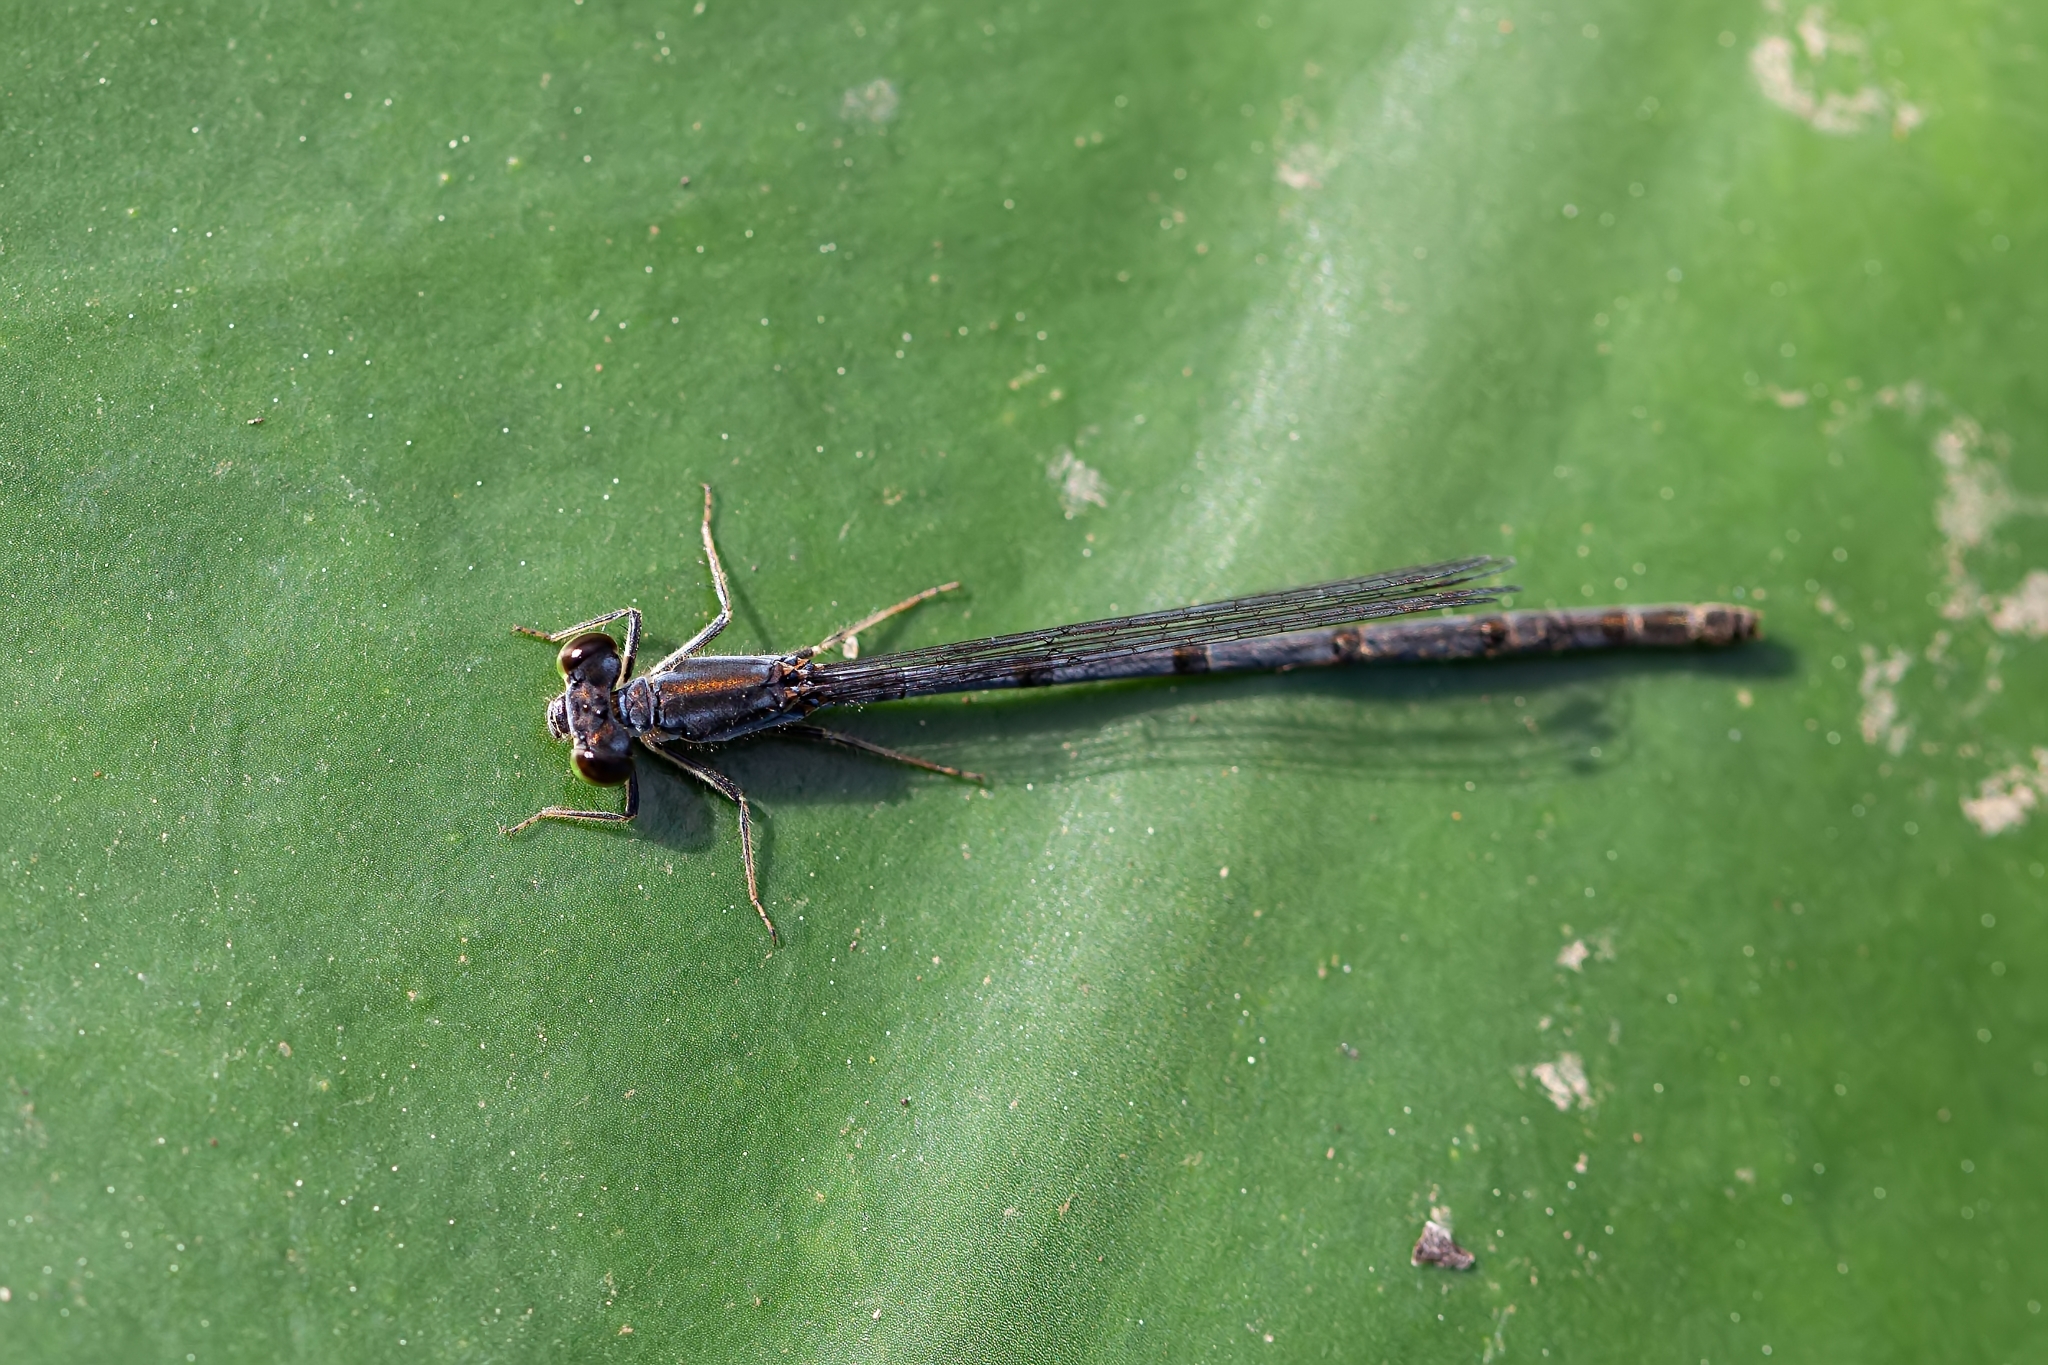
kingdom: Animalia
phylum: Arthropoda
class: Insecta
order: Odonata
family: Coenagrionidae
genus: Ischnura
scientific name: Ischnura posita
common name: Fragile forktail
